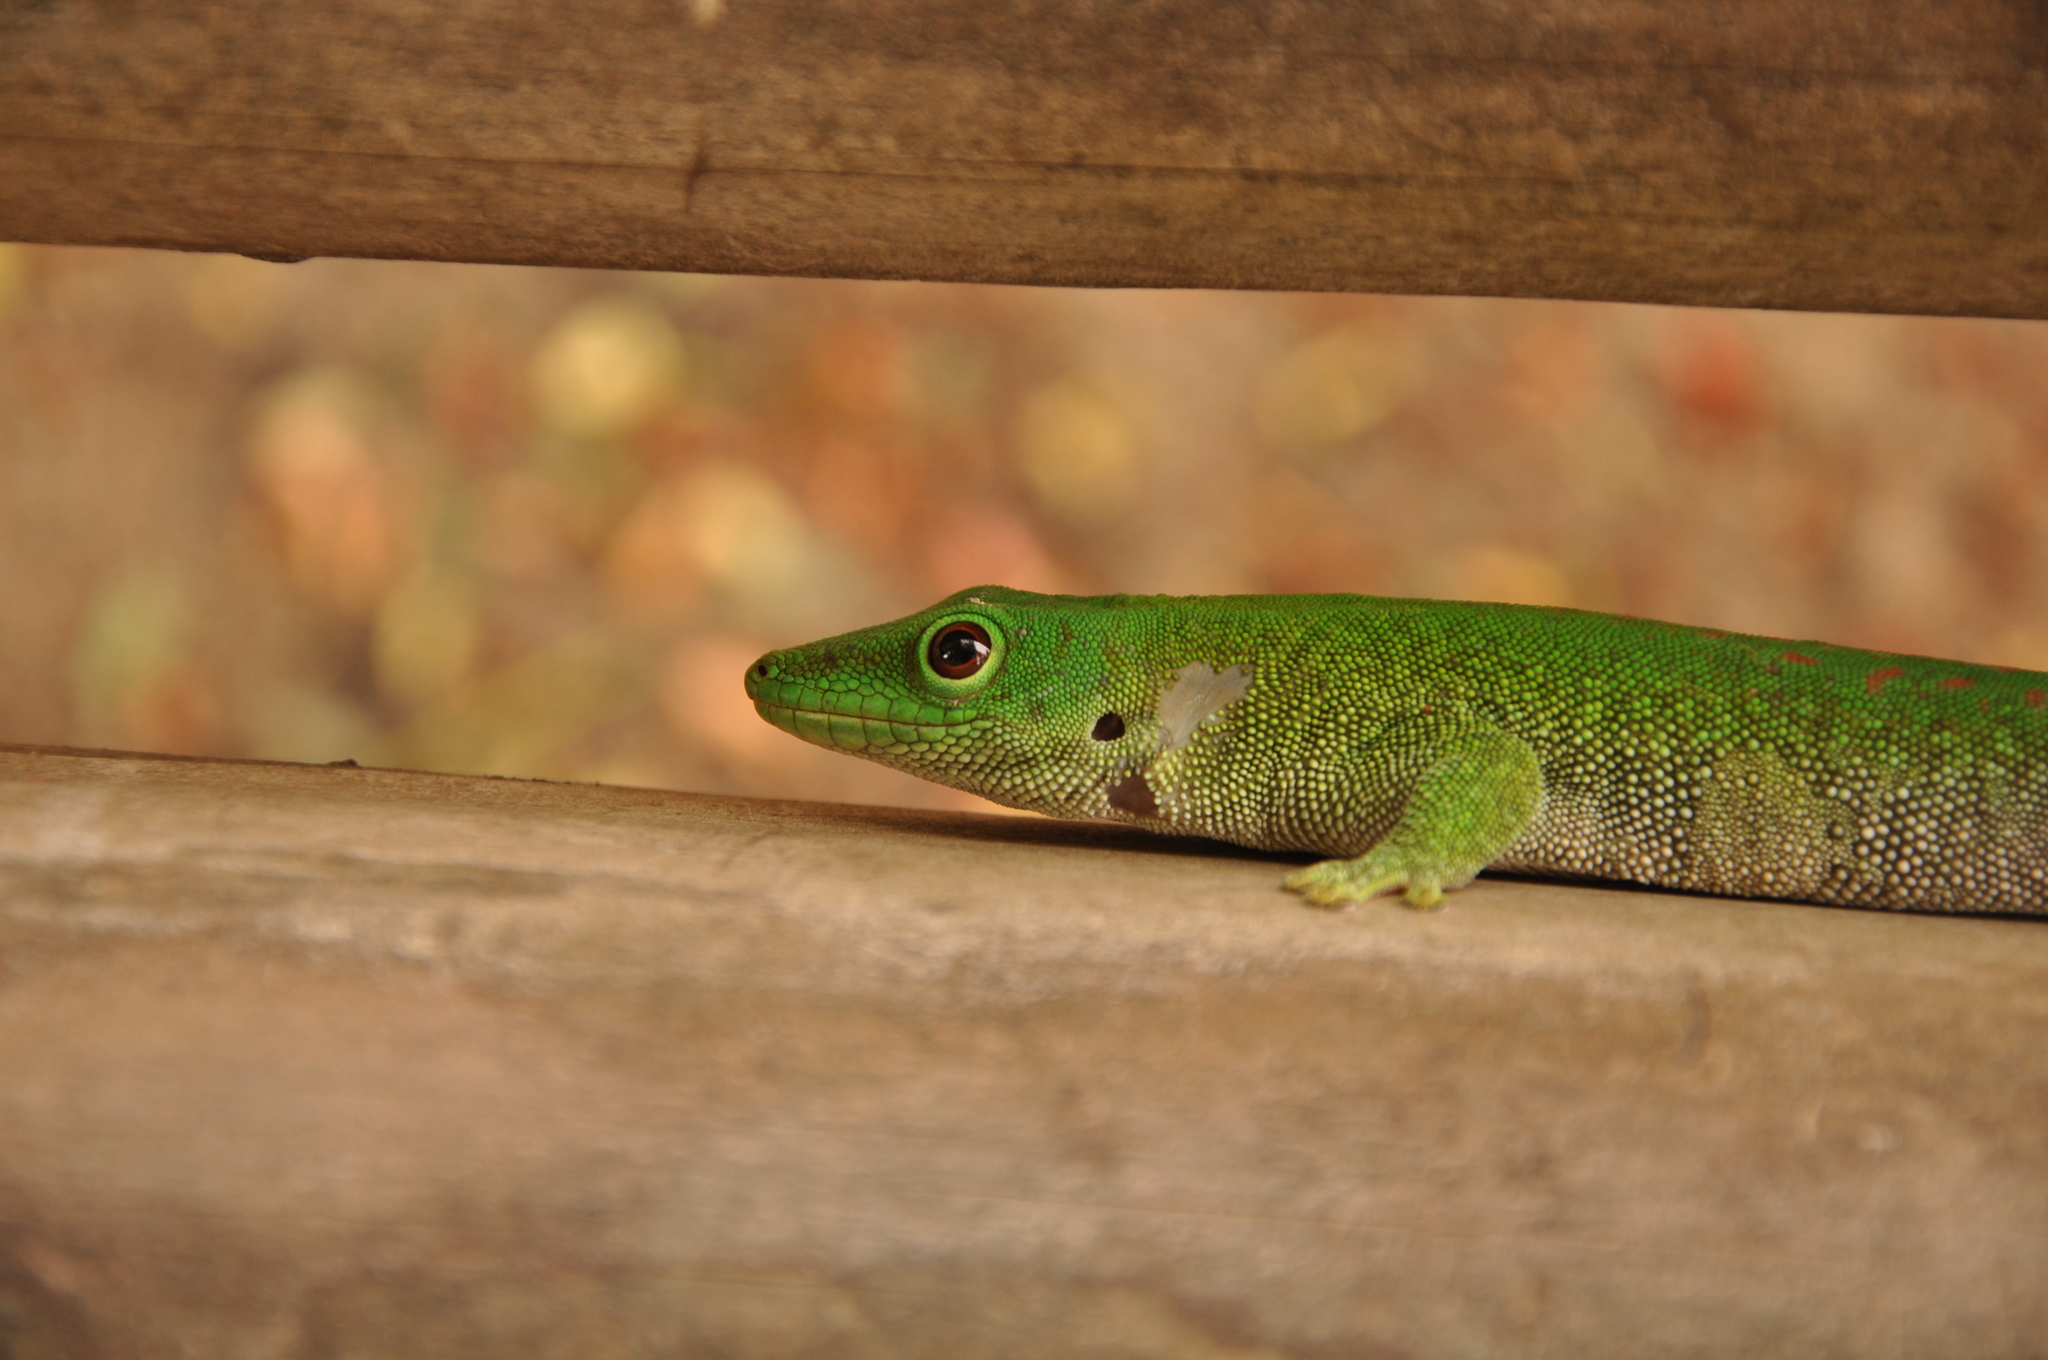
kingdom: Animalia
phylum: Chordata
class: Squamata
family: Gekkonidae
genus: Phelsuma
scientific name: Phelsuma kochi
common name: Madagascar day gecko
